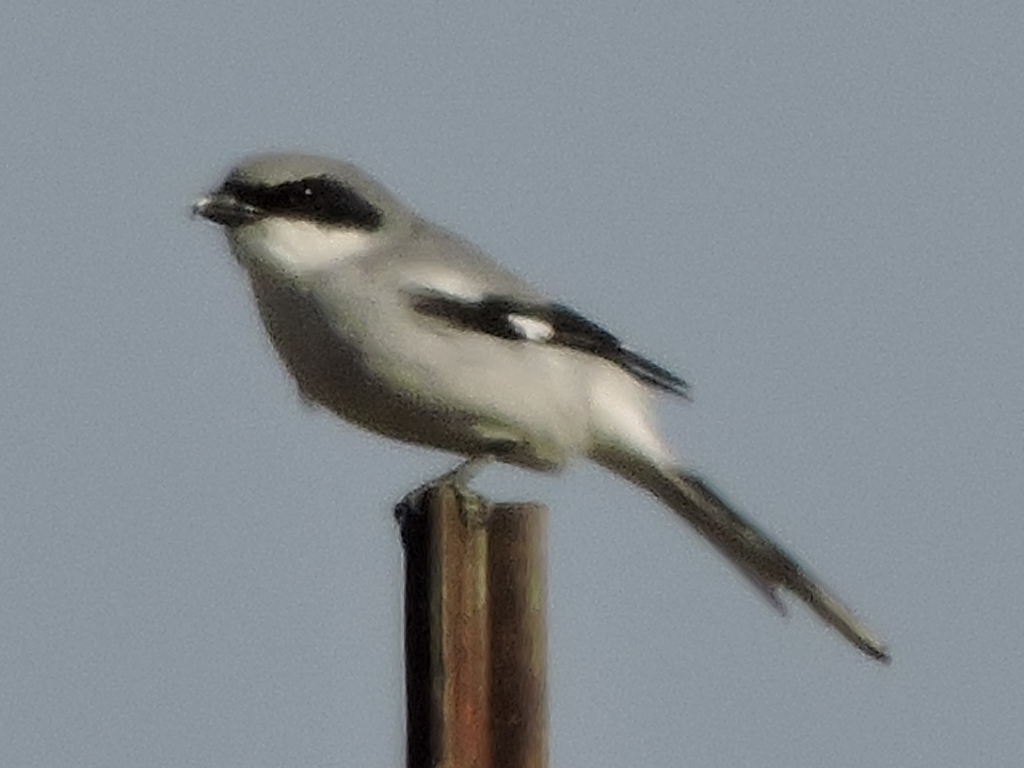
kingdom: Animalia
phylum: Chordata
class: Aves
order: Passeriformes
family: Laniidae
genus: Lanius
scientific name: Lanius ludovicianus
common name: Loggerhead shrike
